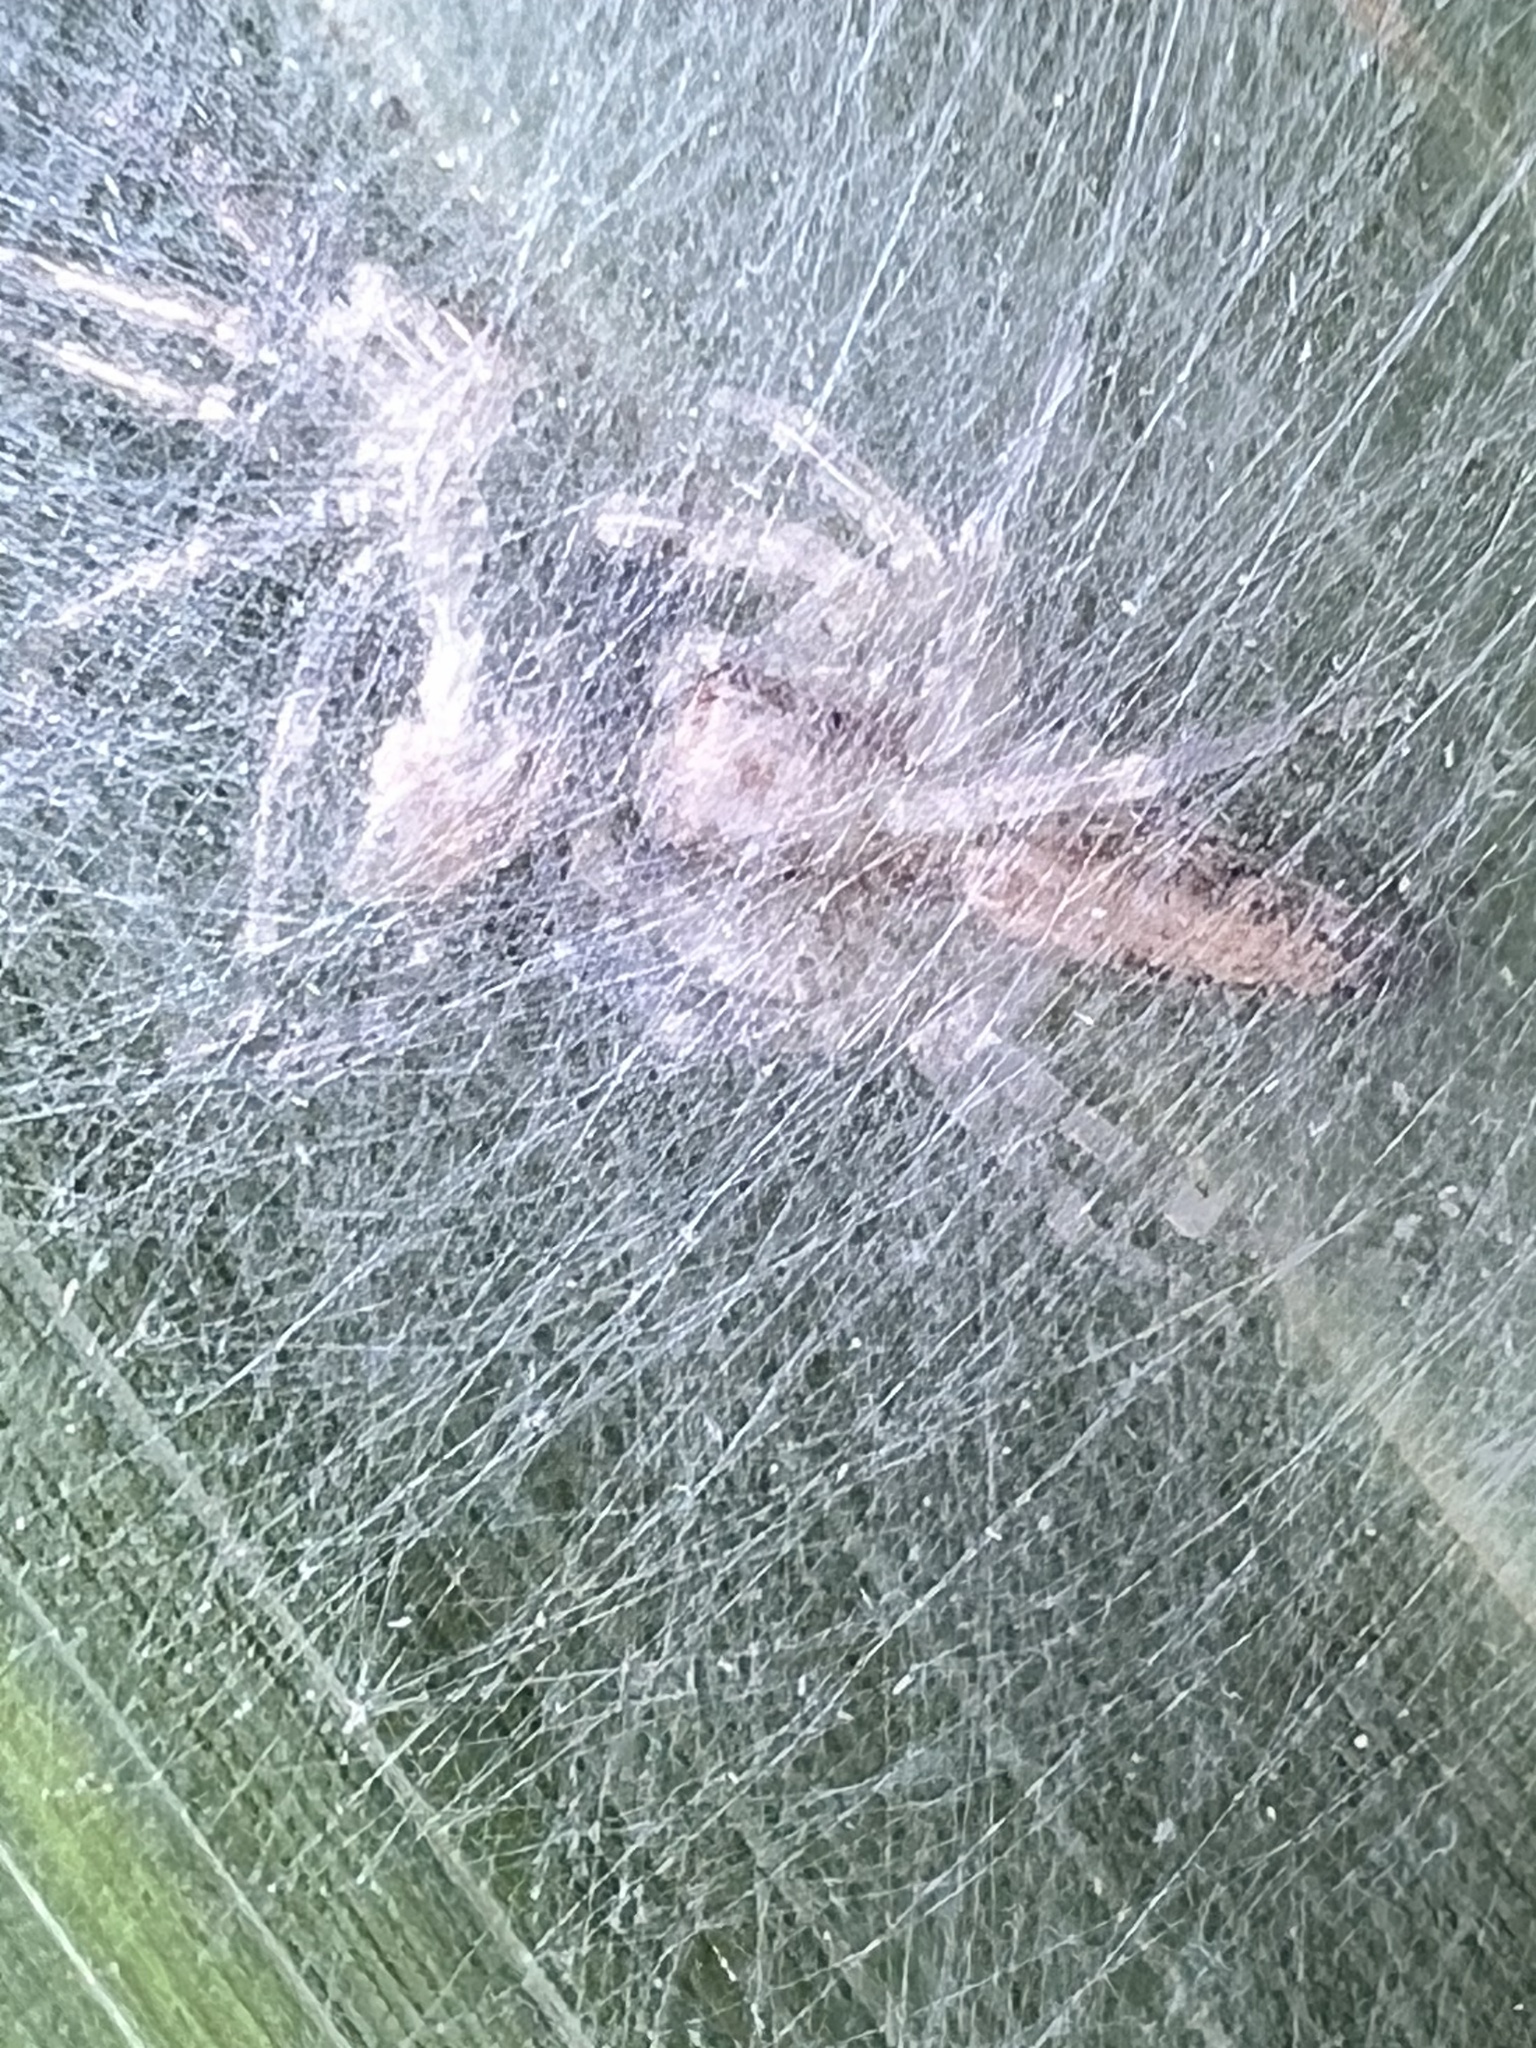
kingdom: Animalia
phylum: Arthropoda
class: Arachnida
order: Araneae
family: Salticidae
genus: Helpis
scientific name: Helpis minitabunda
